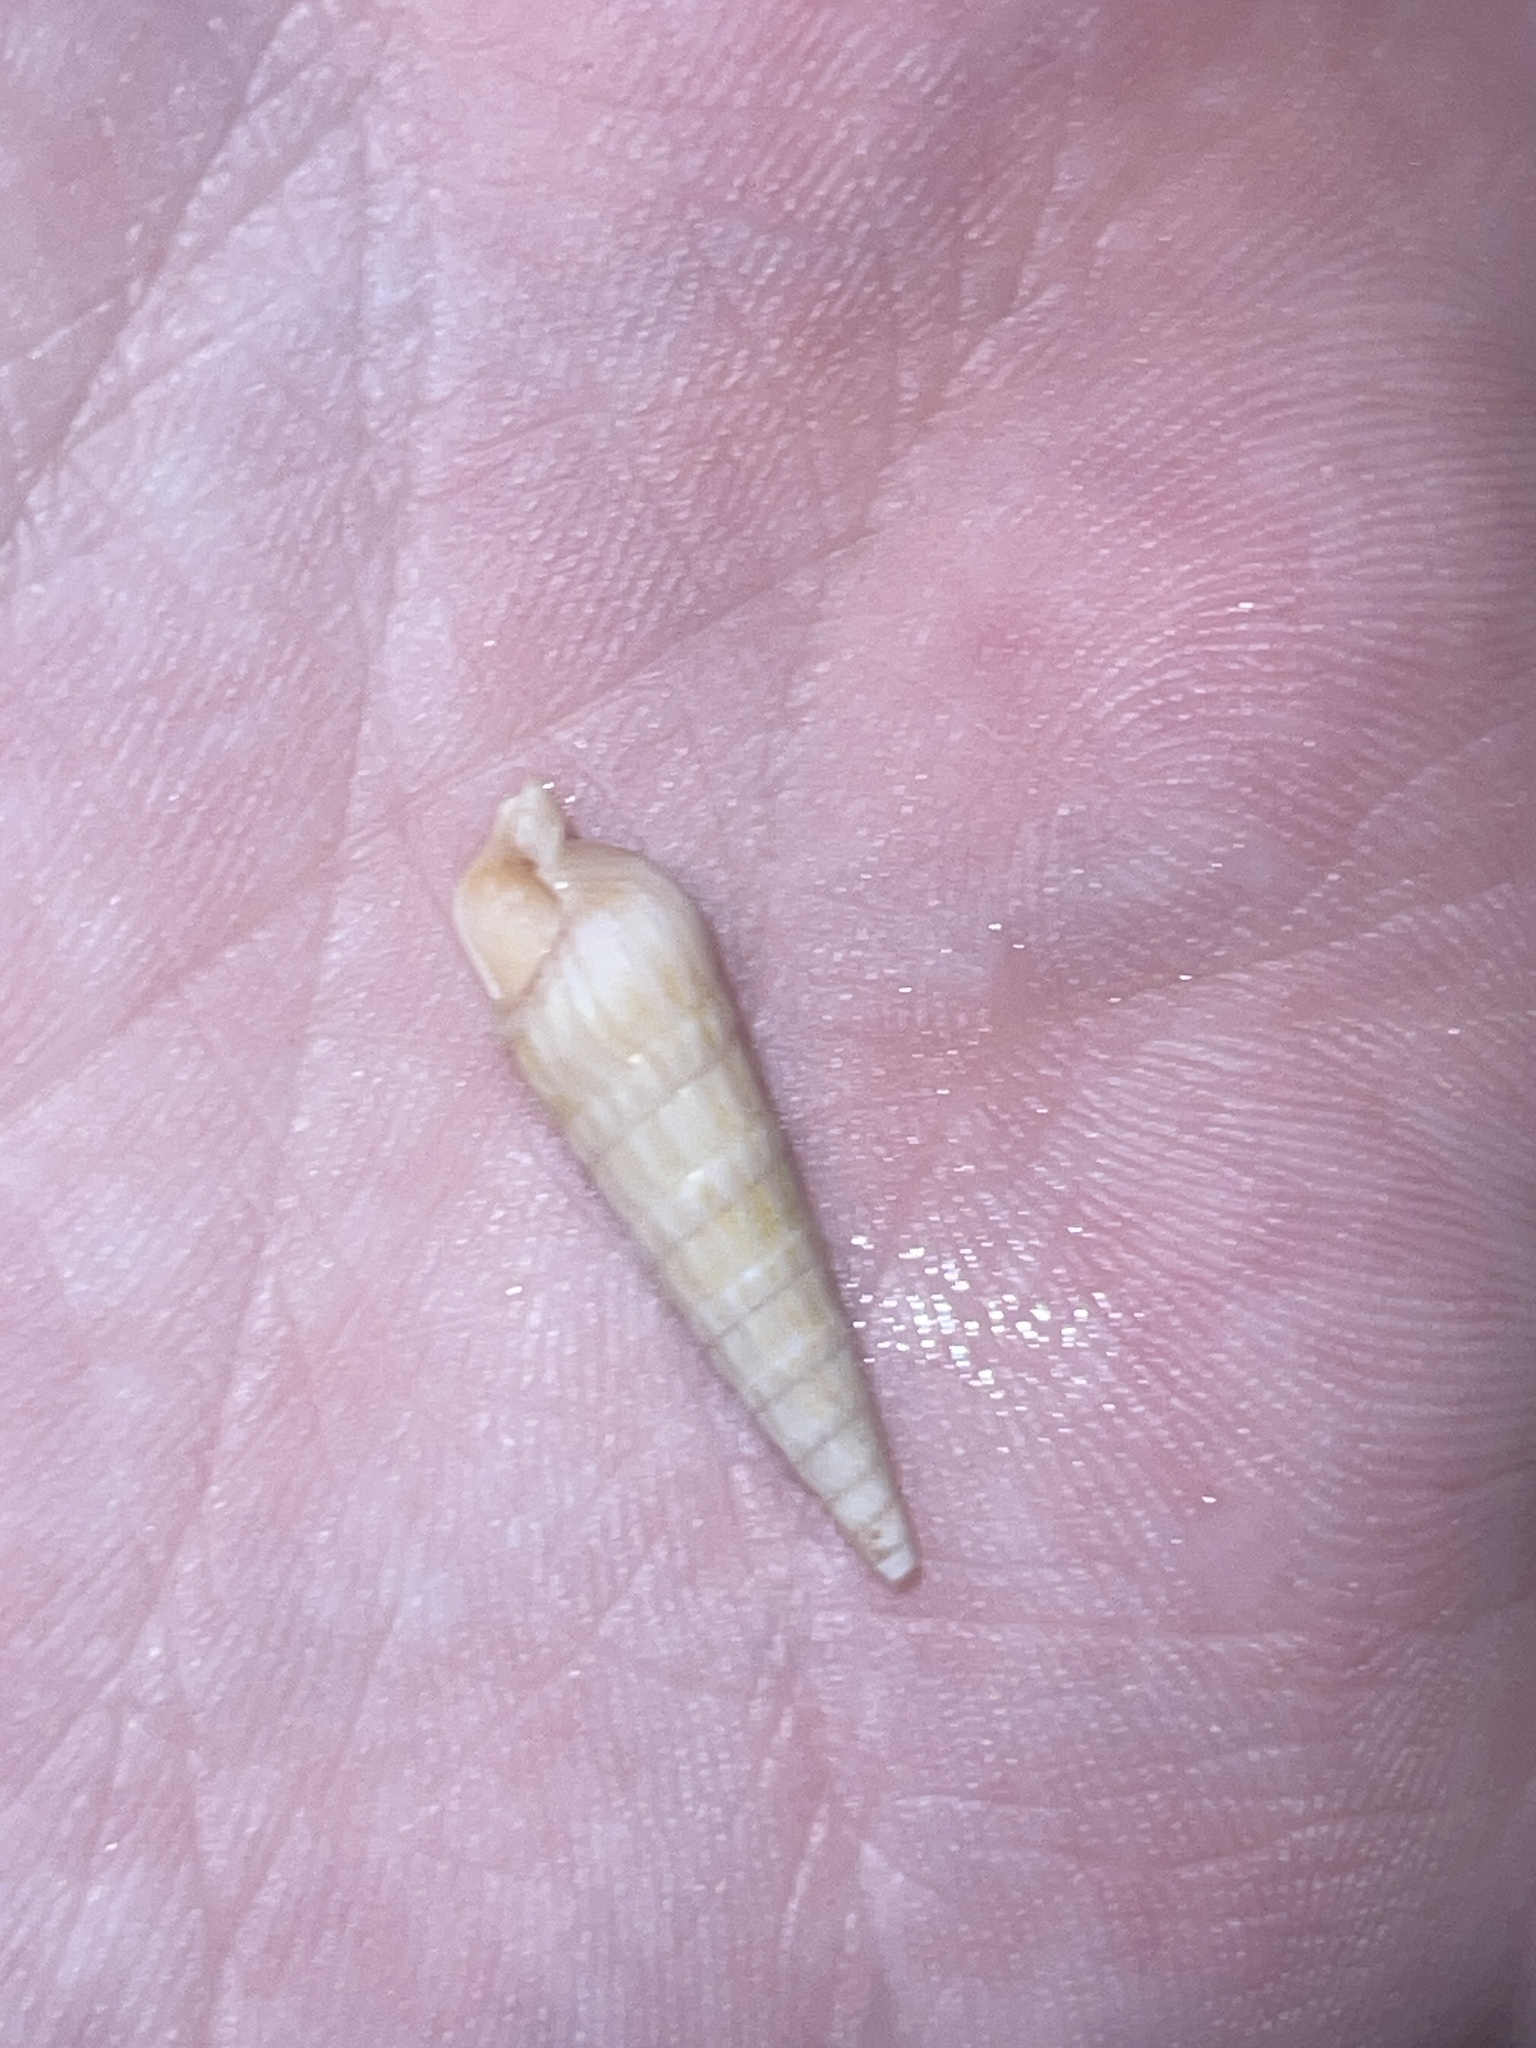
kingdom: Animalia
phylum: Mollusca
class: Gastropoda
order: Neogastropoda
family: Terebridae
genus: Neoterebra
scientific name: Neoterebra dislocata
